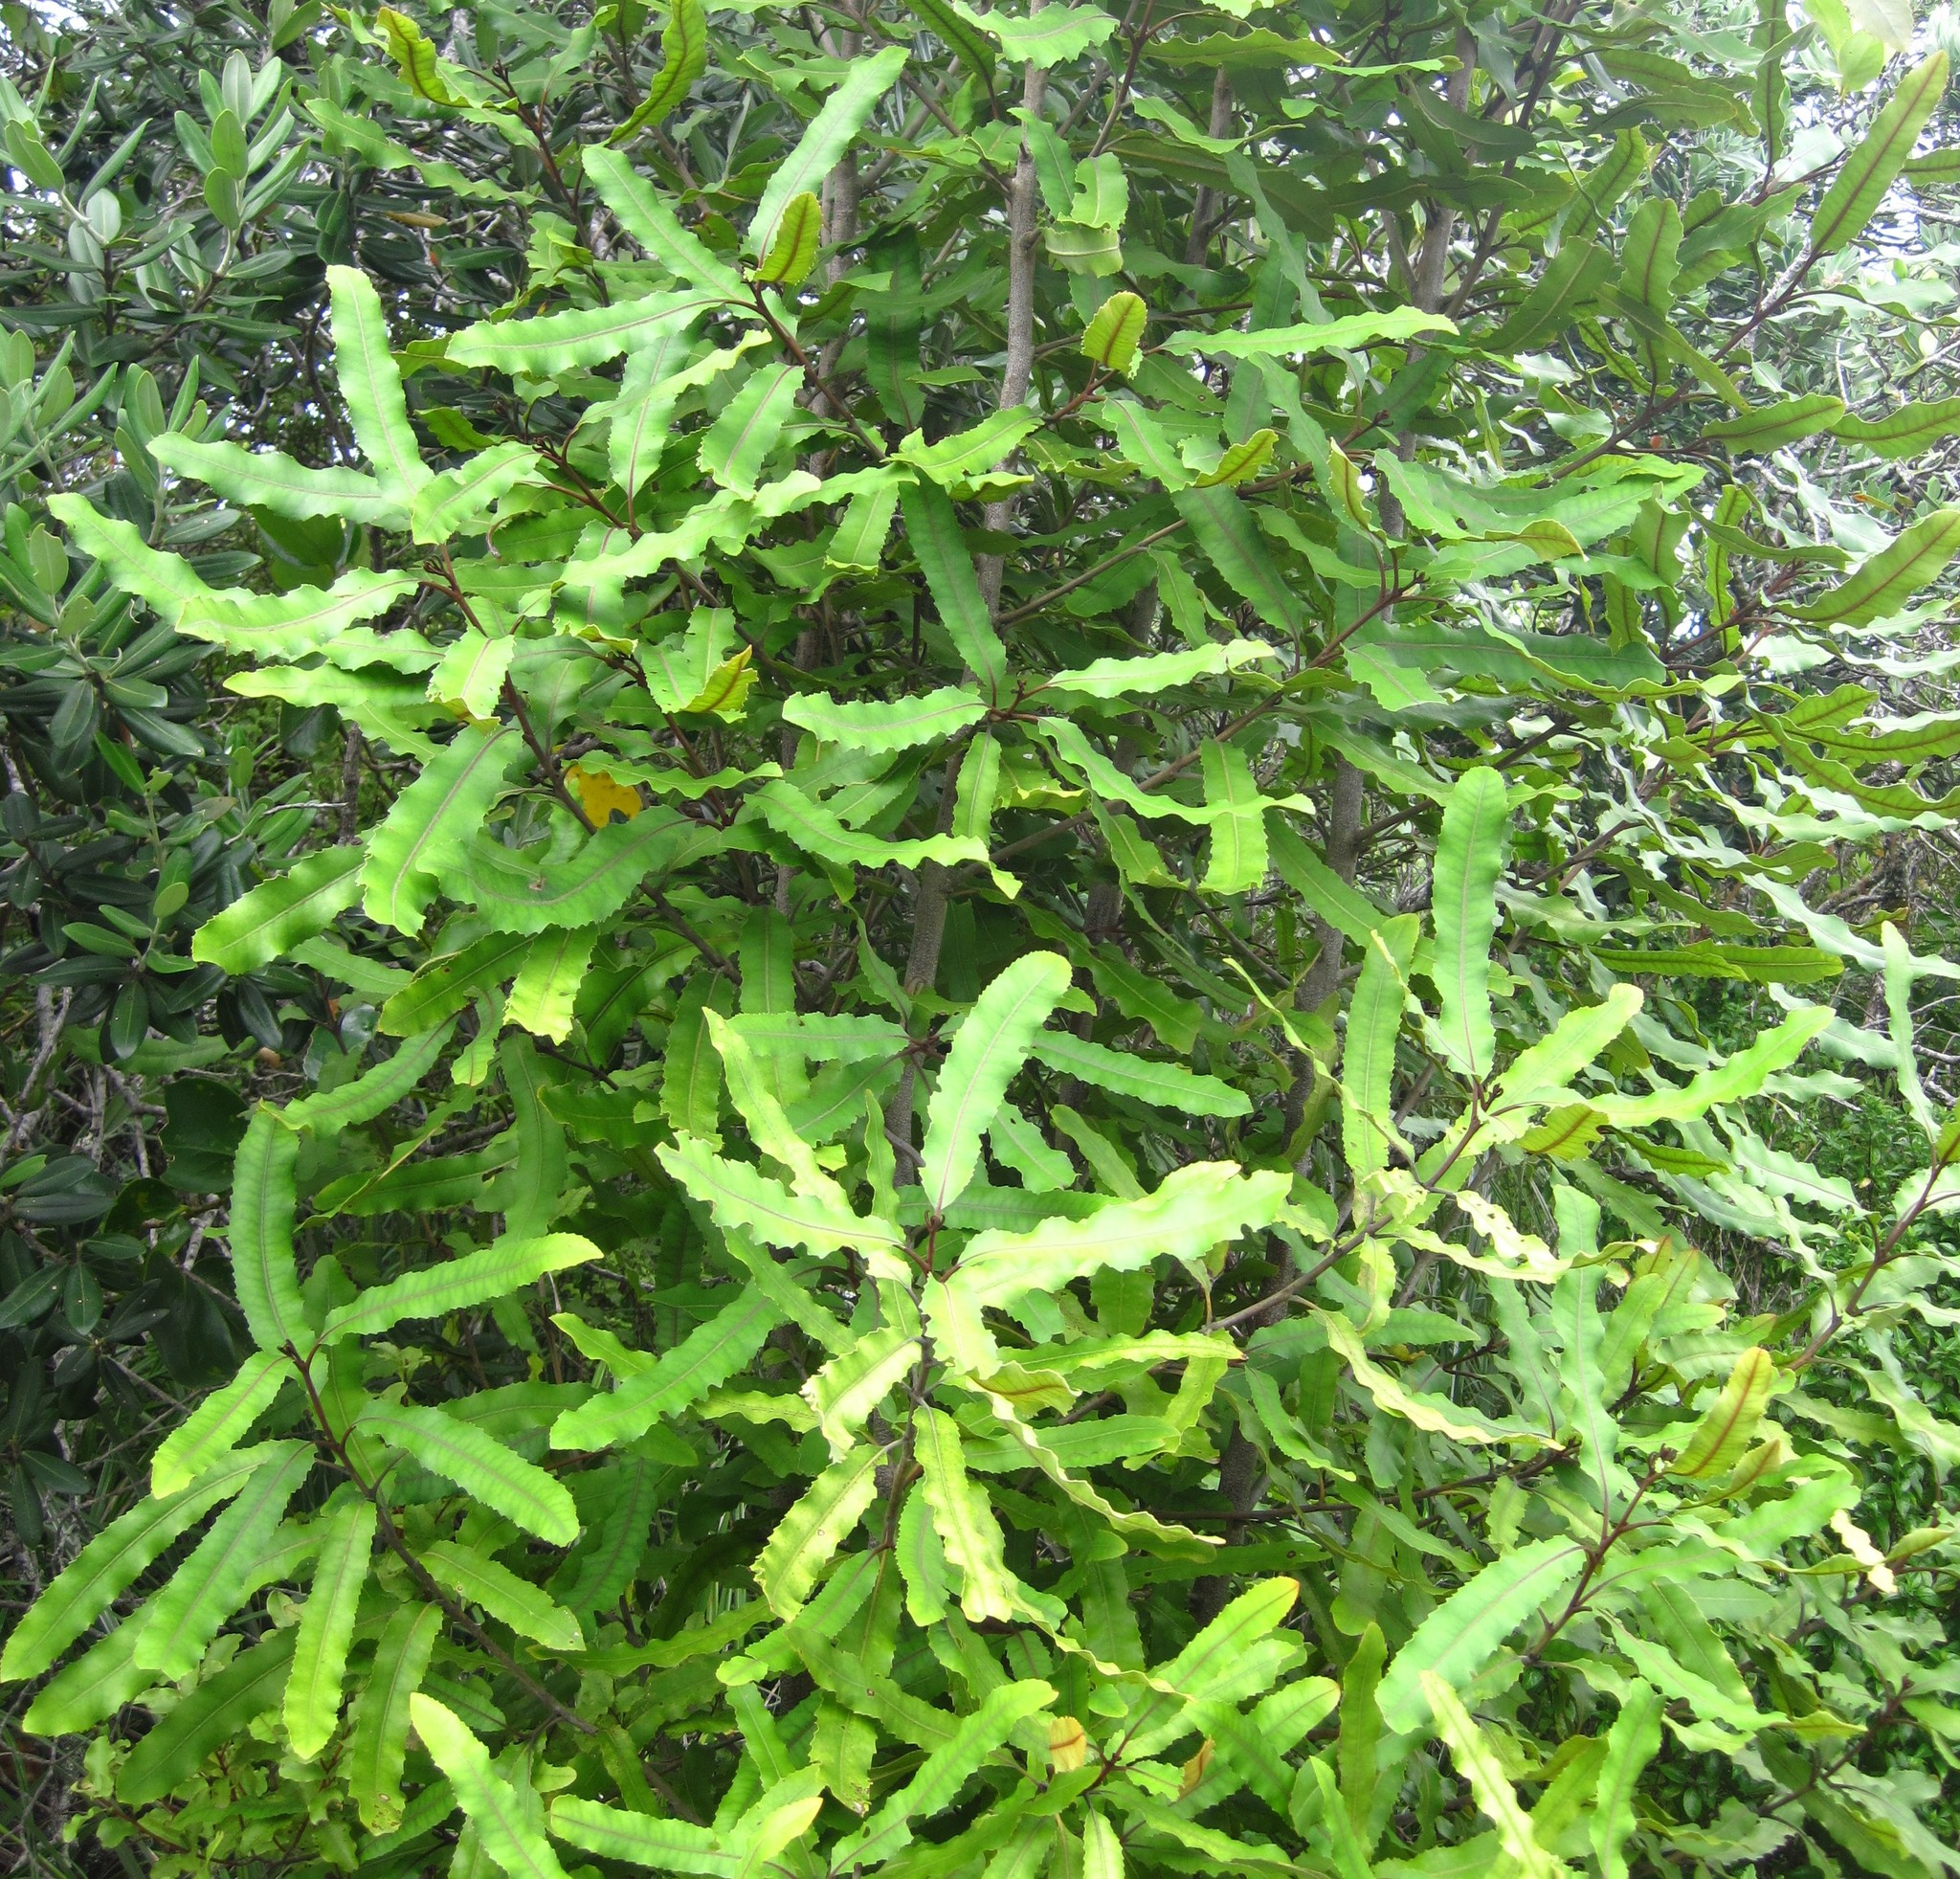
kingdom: Plantae
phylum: Tracheophyta
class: Magnoliopsida
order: Proteales
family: Proteaceae
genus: Knightia
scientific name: Knightia excelsa
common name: New zealand-honeysuckle
